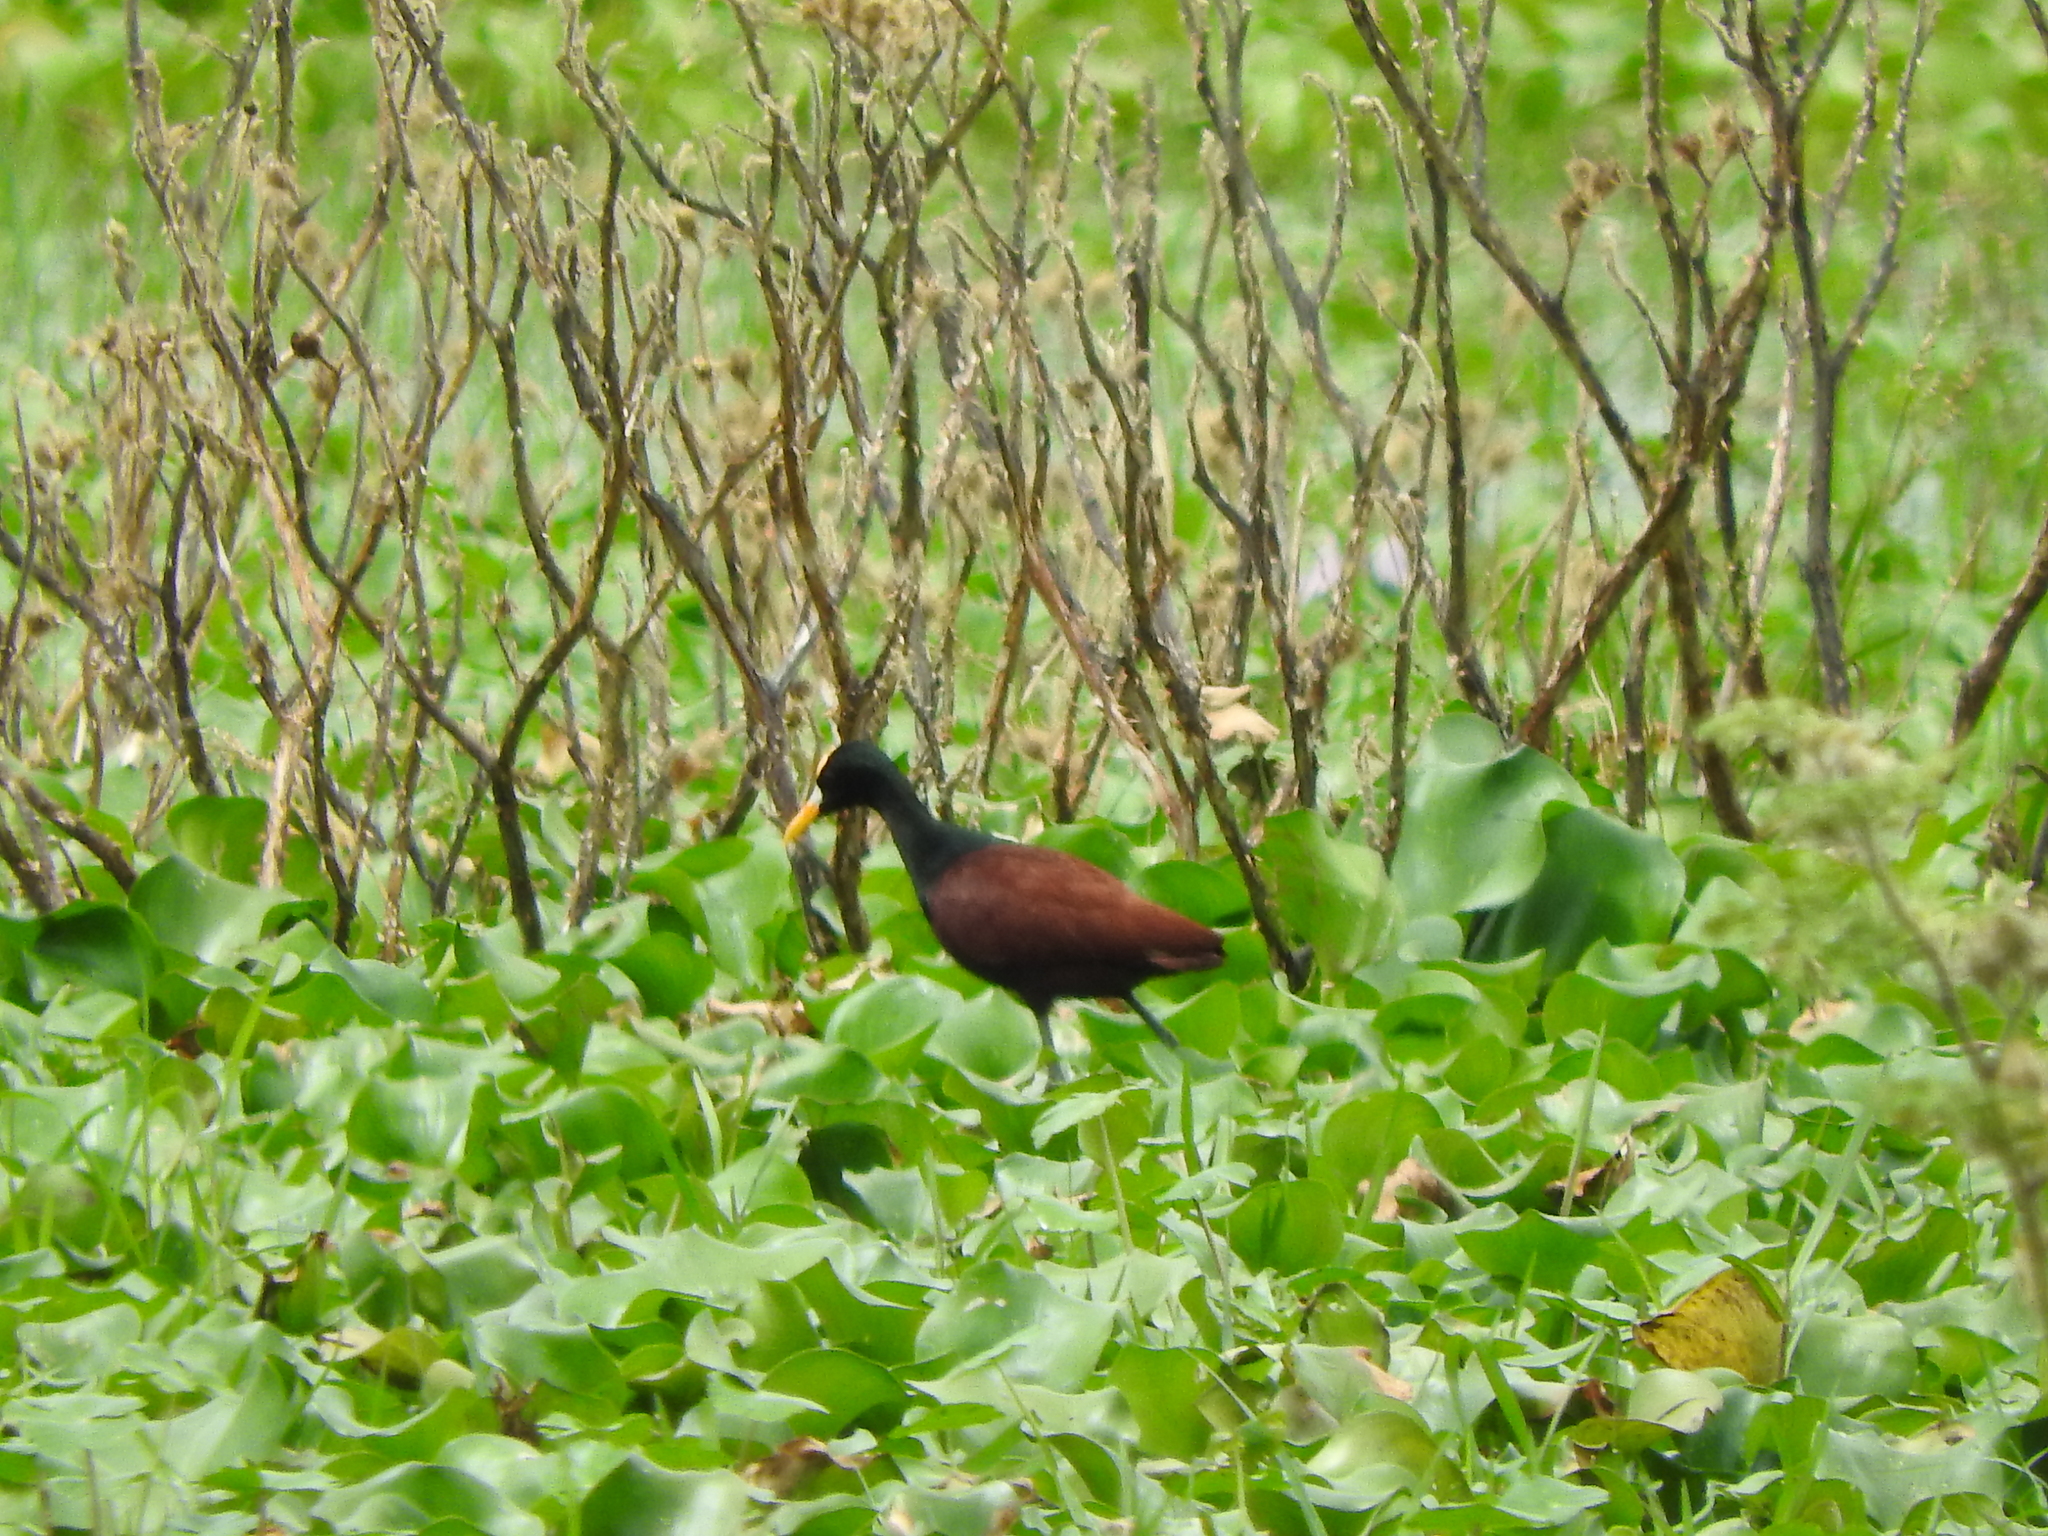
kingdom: Animalia
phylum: Chordata
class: Aves
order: Charadriiformes
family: Jacanidae
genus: Jacana
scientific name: Jacana spinosa
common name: Northern jacana
